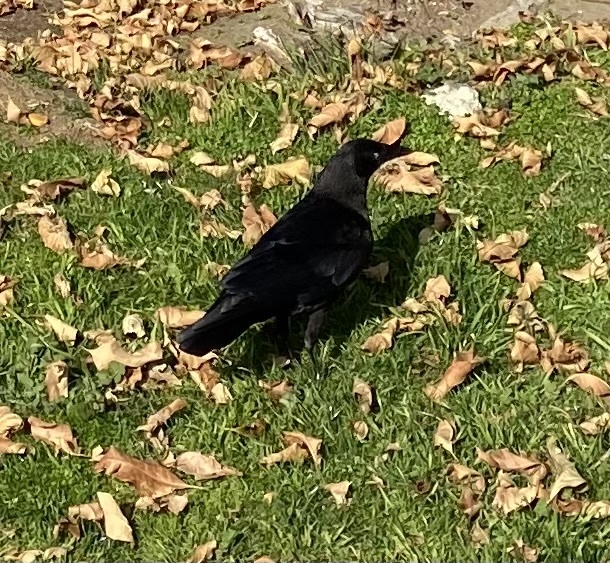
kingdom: Animalia
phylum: Chordata
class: Aves
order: Passeriformes
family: Corvidae
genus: Corvus
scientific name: Corvus brachyrhynchos
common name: American crow
